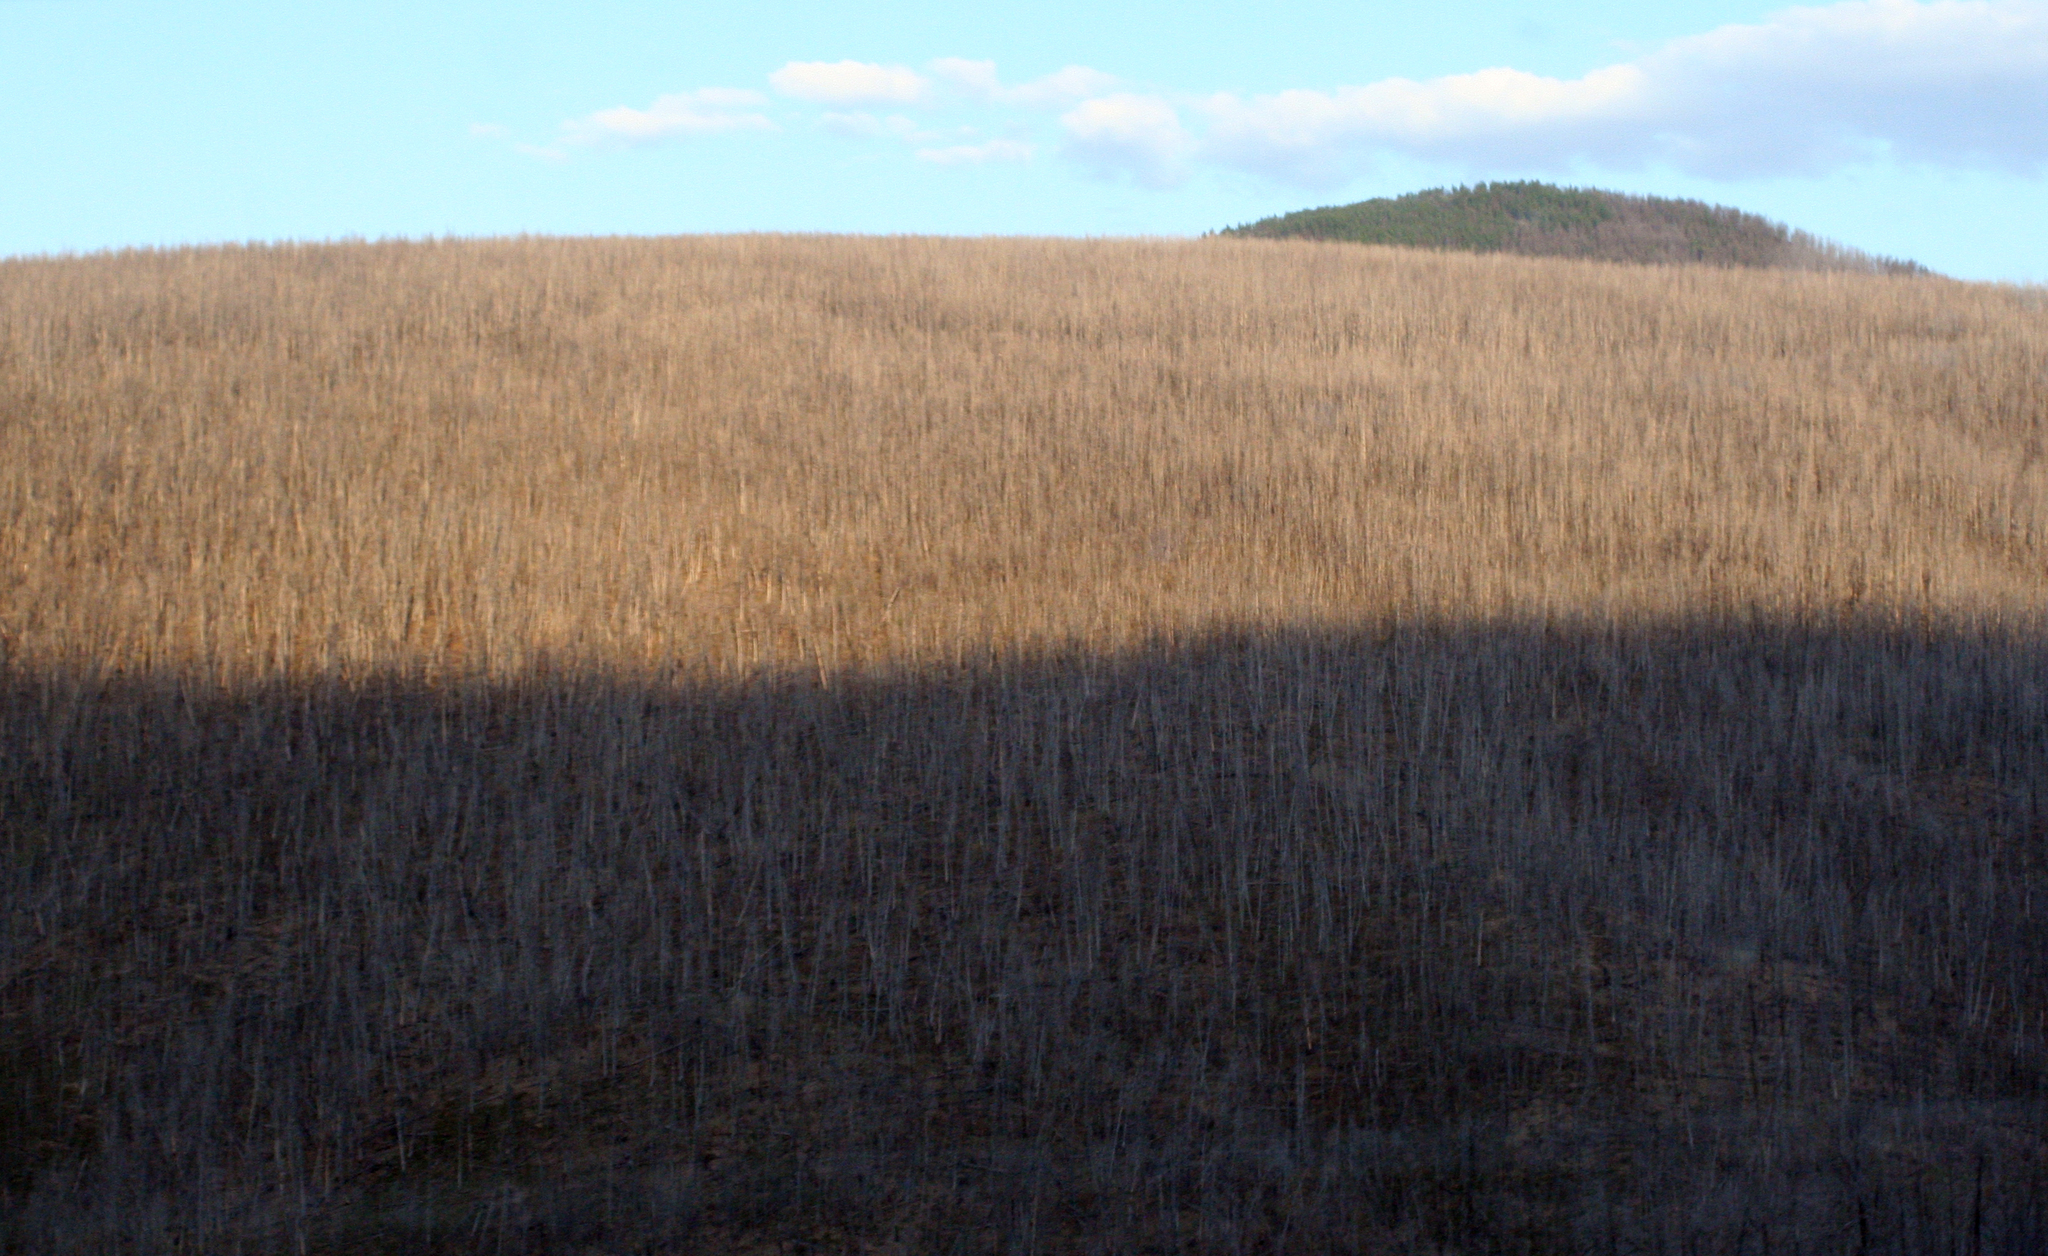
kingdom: Plantae
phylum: Tracheophyta
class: Pinopsida
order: Pinales
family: Pinaceae
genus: Larix
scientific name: Larix sibirica
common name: Siberian larch
